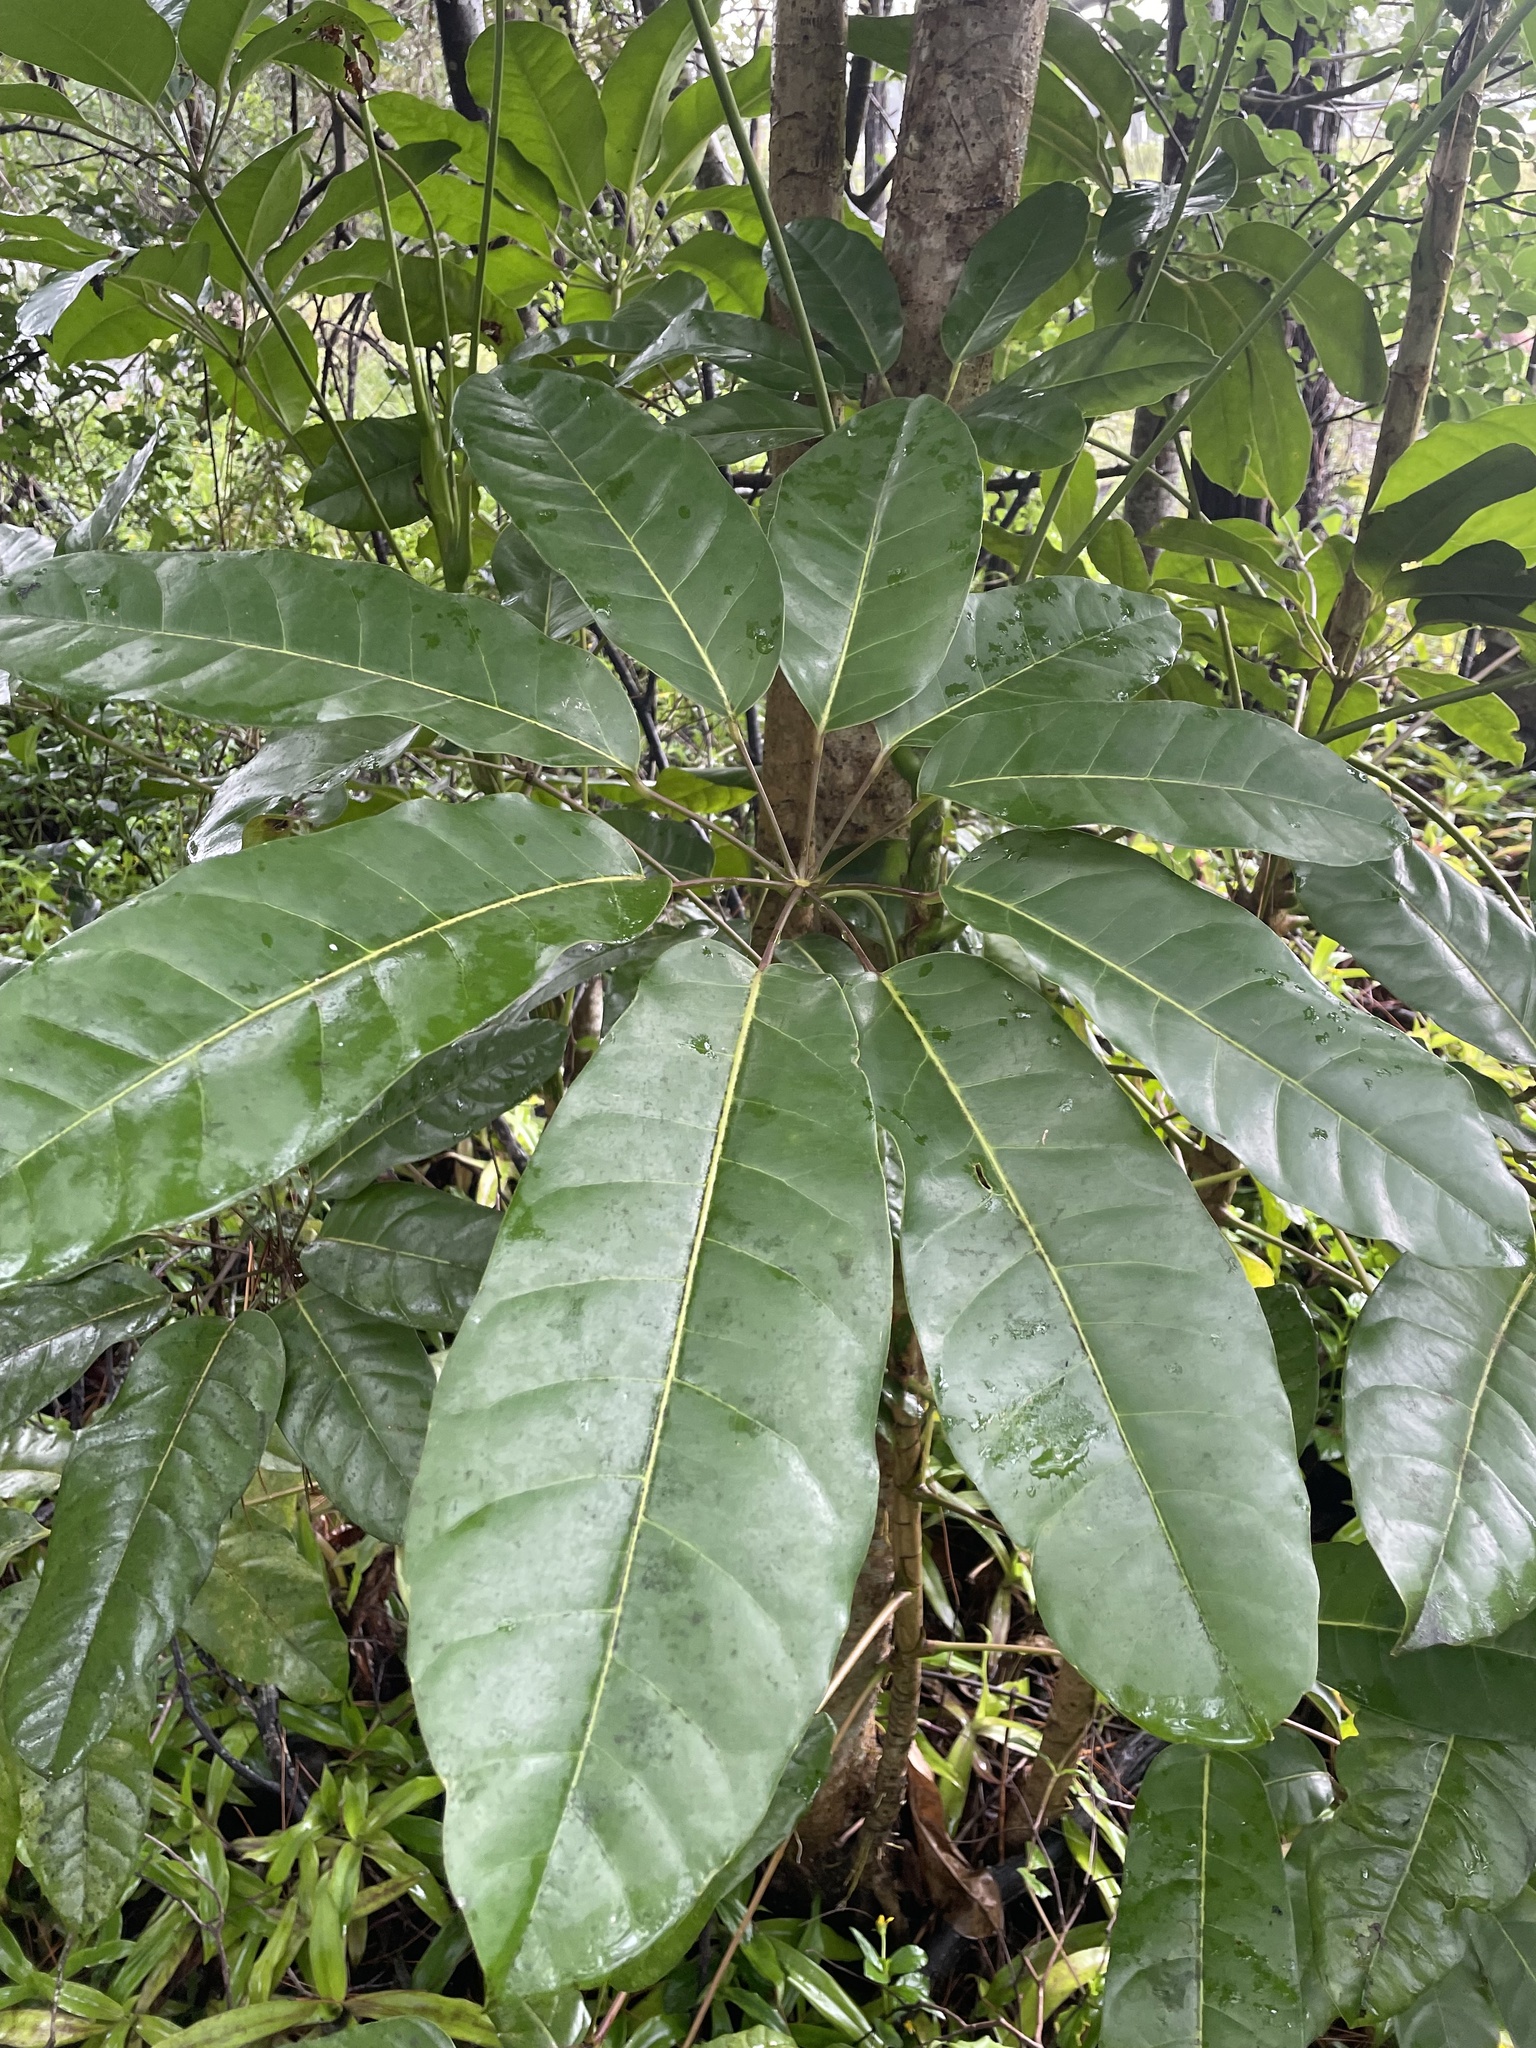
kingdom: Plantae
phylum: Tracheophyta
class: Magnoliopsida
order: Apiales
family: Araliaceae
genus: Heptapleurum
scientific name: Heptapleurum actinophyllum
